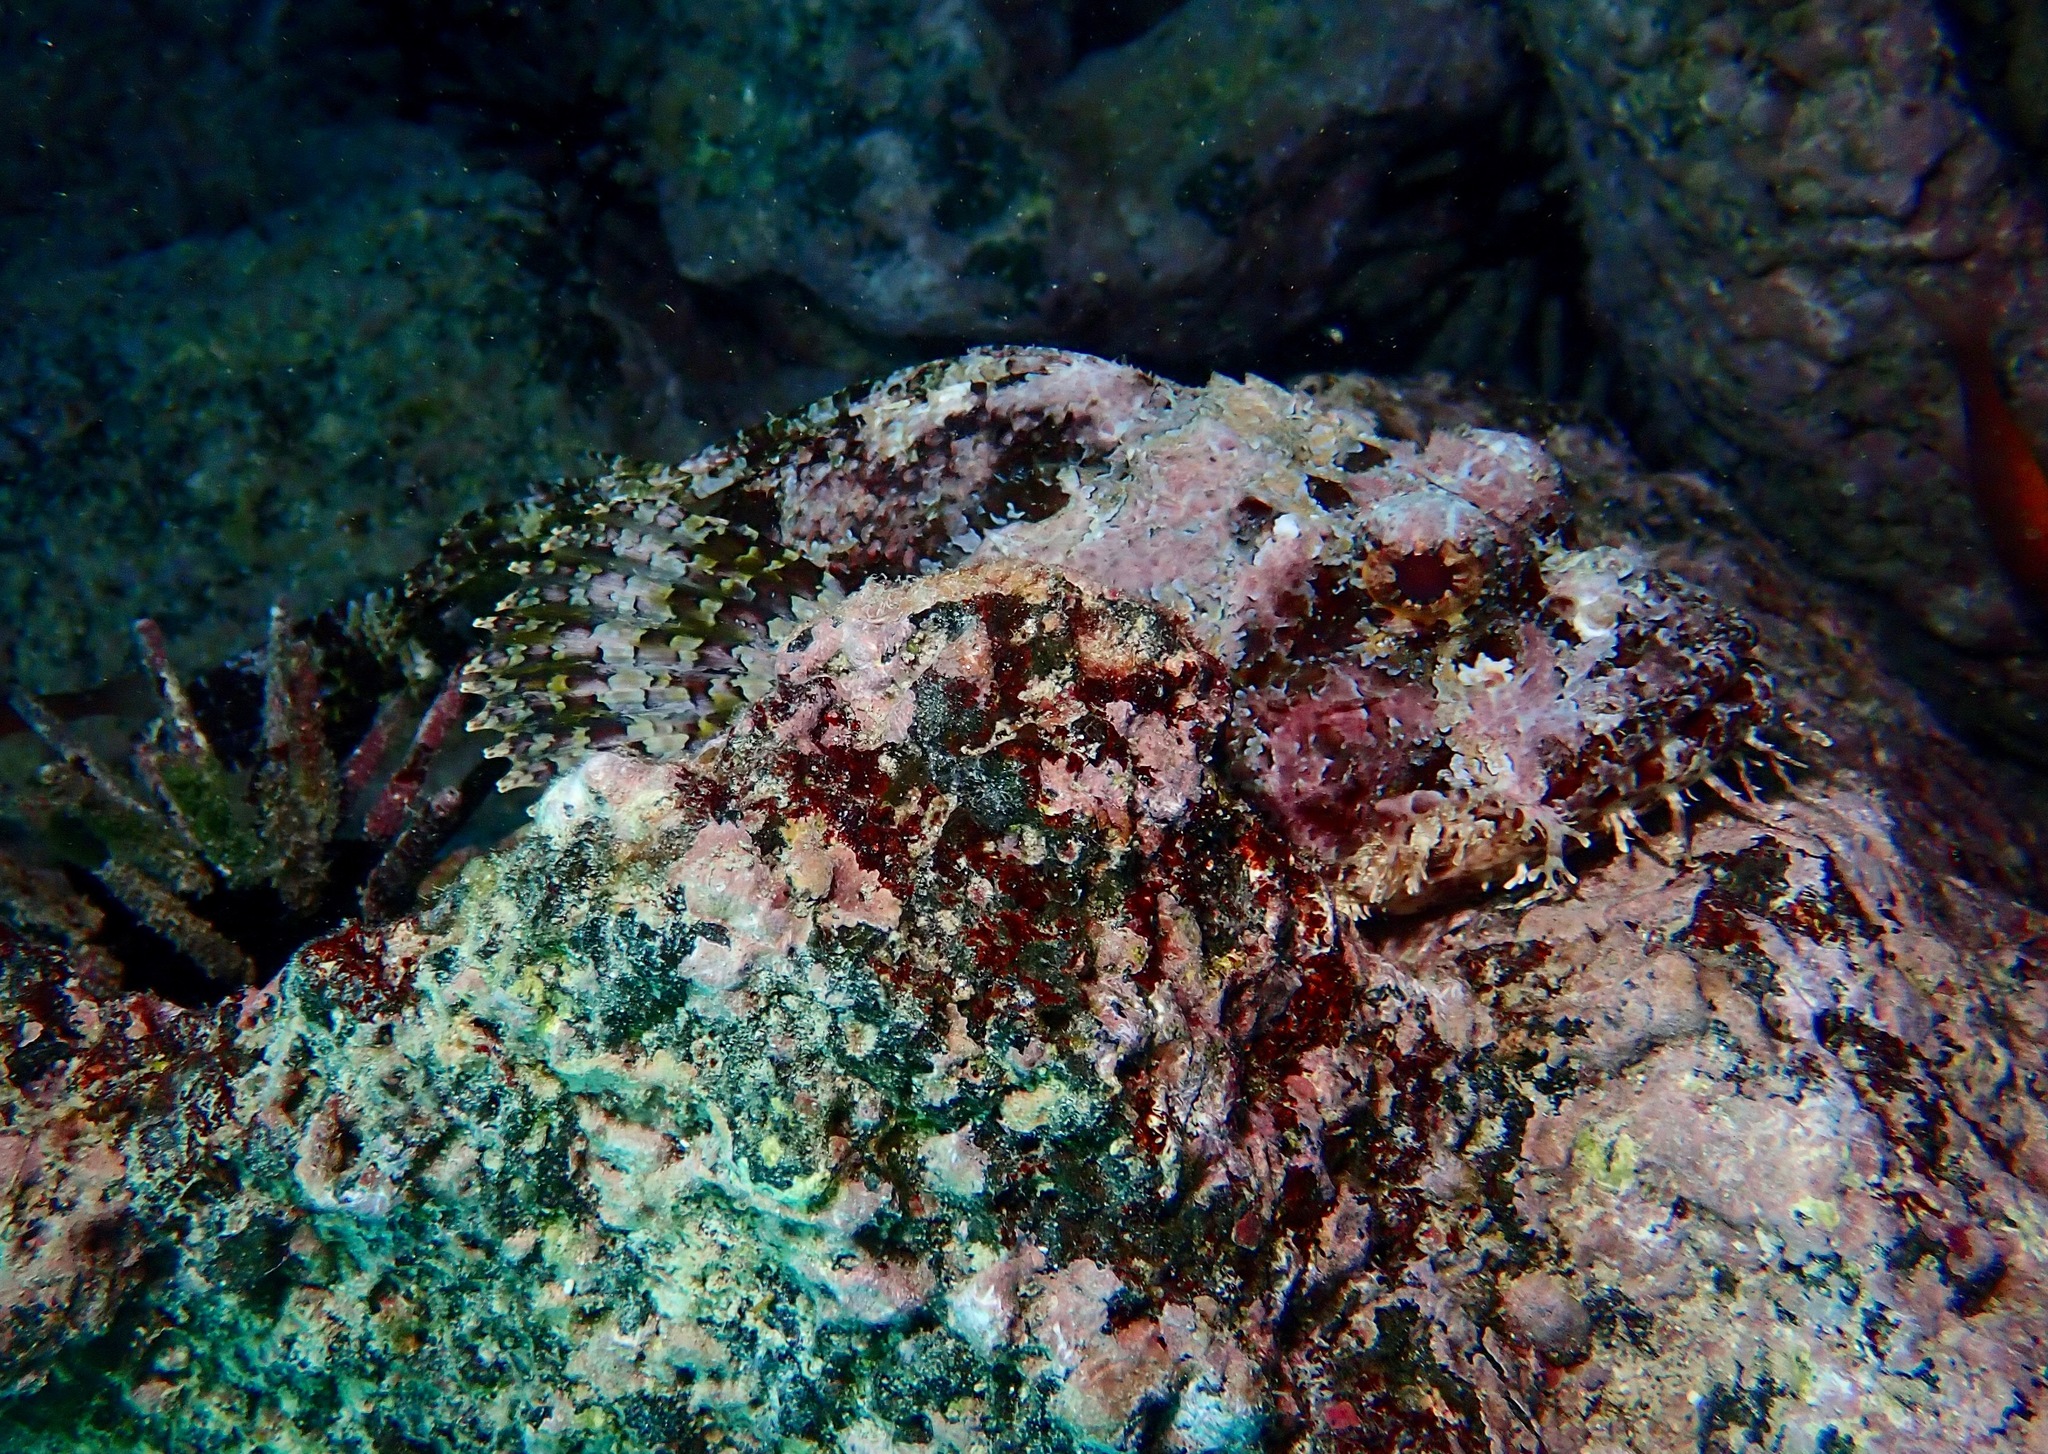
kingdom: Animalia
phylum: Chordata
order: Scorpaeniformes
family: Scorpaenidae
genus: Scorpaena
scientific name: Scorpaena mystes
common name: Pacific spotted scorpionfish
